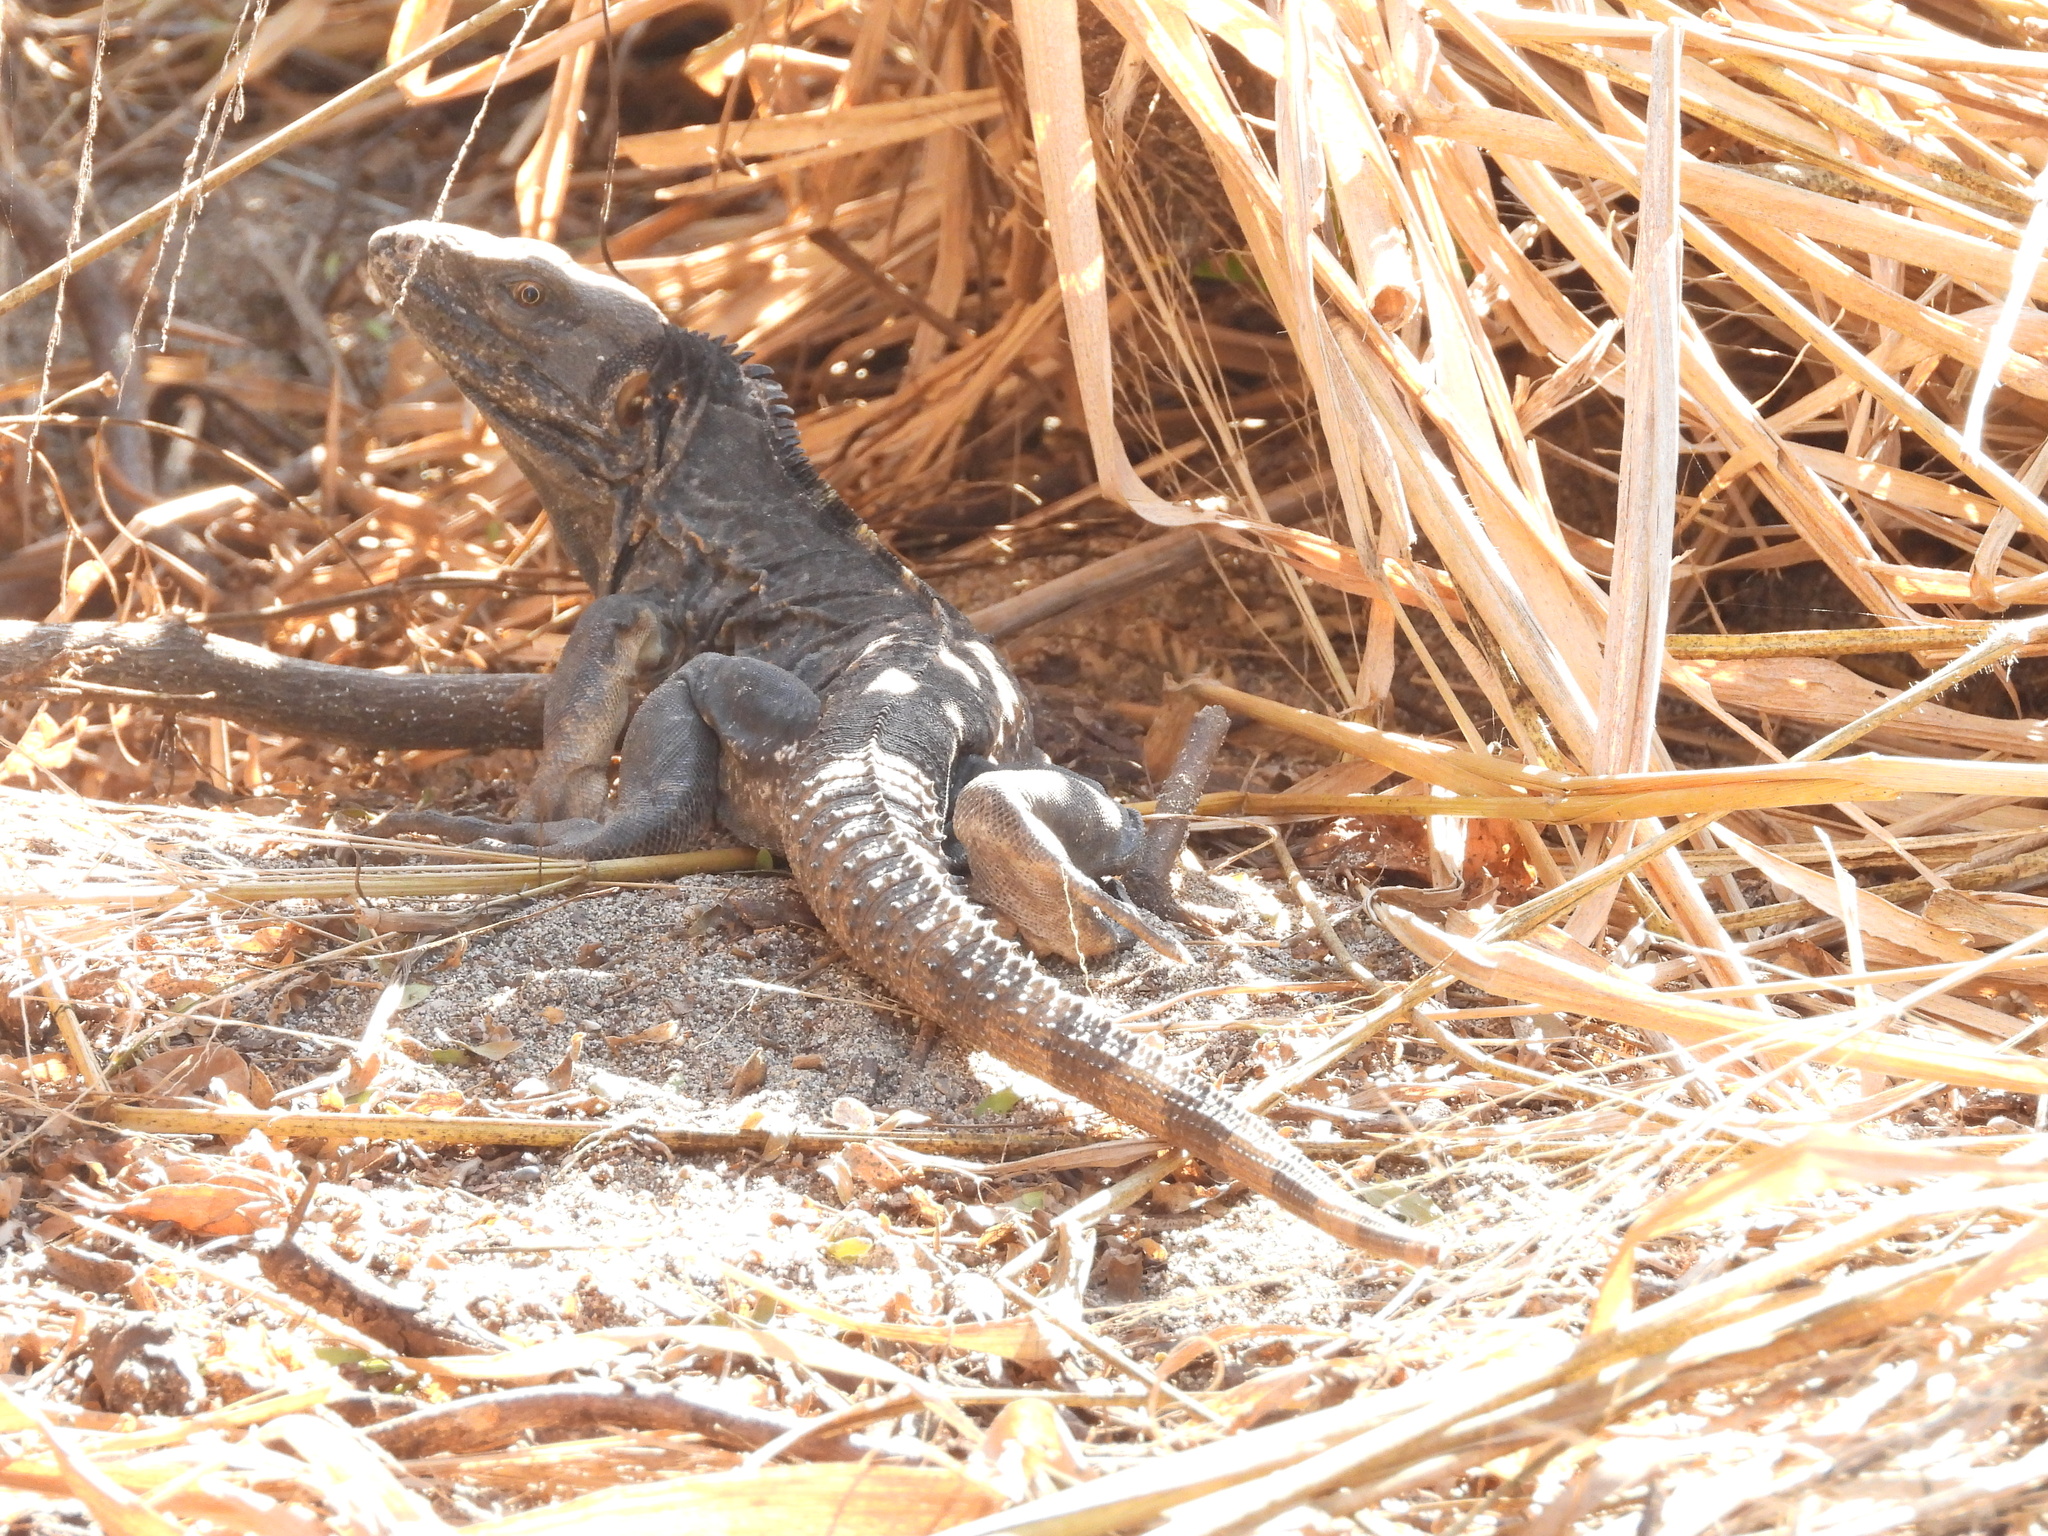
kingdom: Animalia
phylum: Chordata
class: Squamata
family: Iguanidae
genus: Ctenosaura
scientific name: Ctenosaura pectinata
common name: Guerreran spiny-tailed iguana
